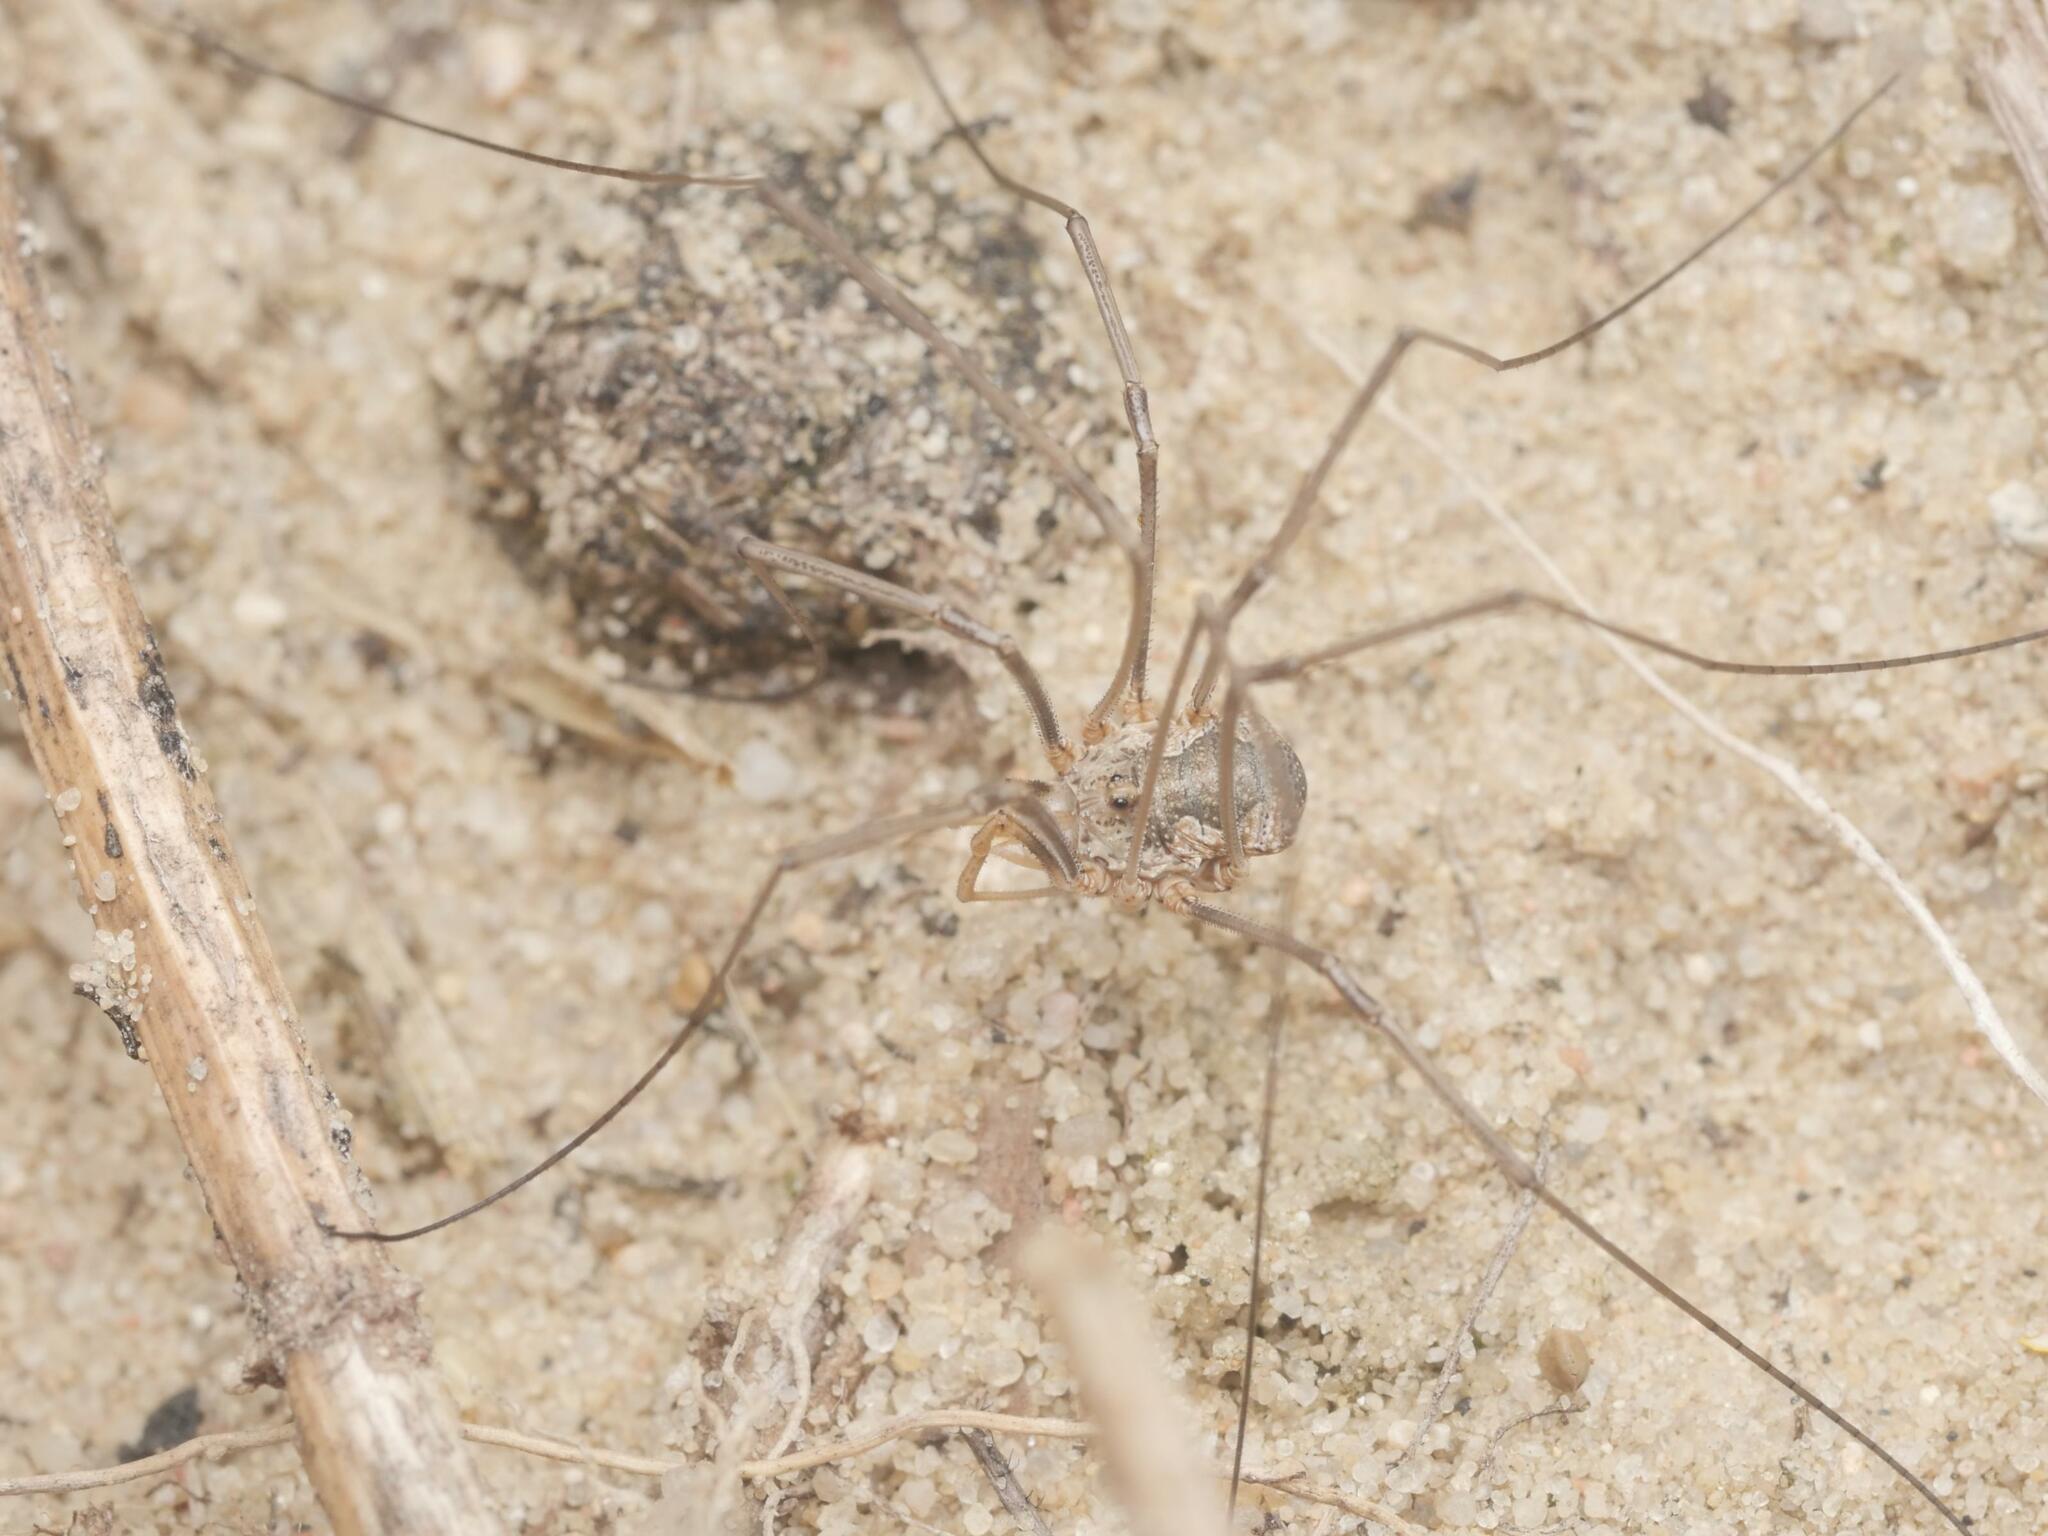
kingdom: Animalia
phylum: Arthropoda
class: Arachnida
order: Opiliones
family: Phalangiidae
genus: Phalangium
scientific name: Phalangium opilio
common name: Daddy longleg
